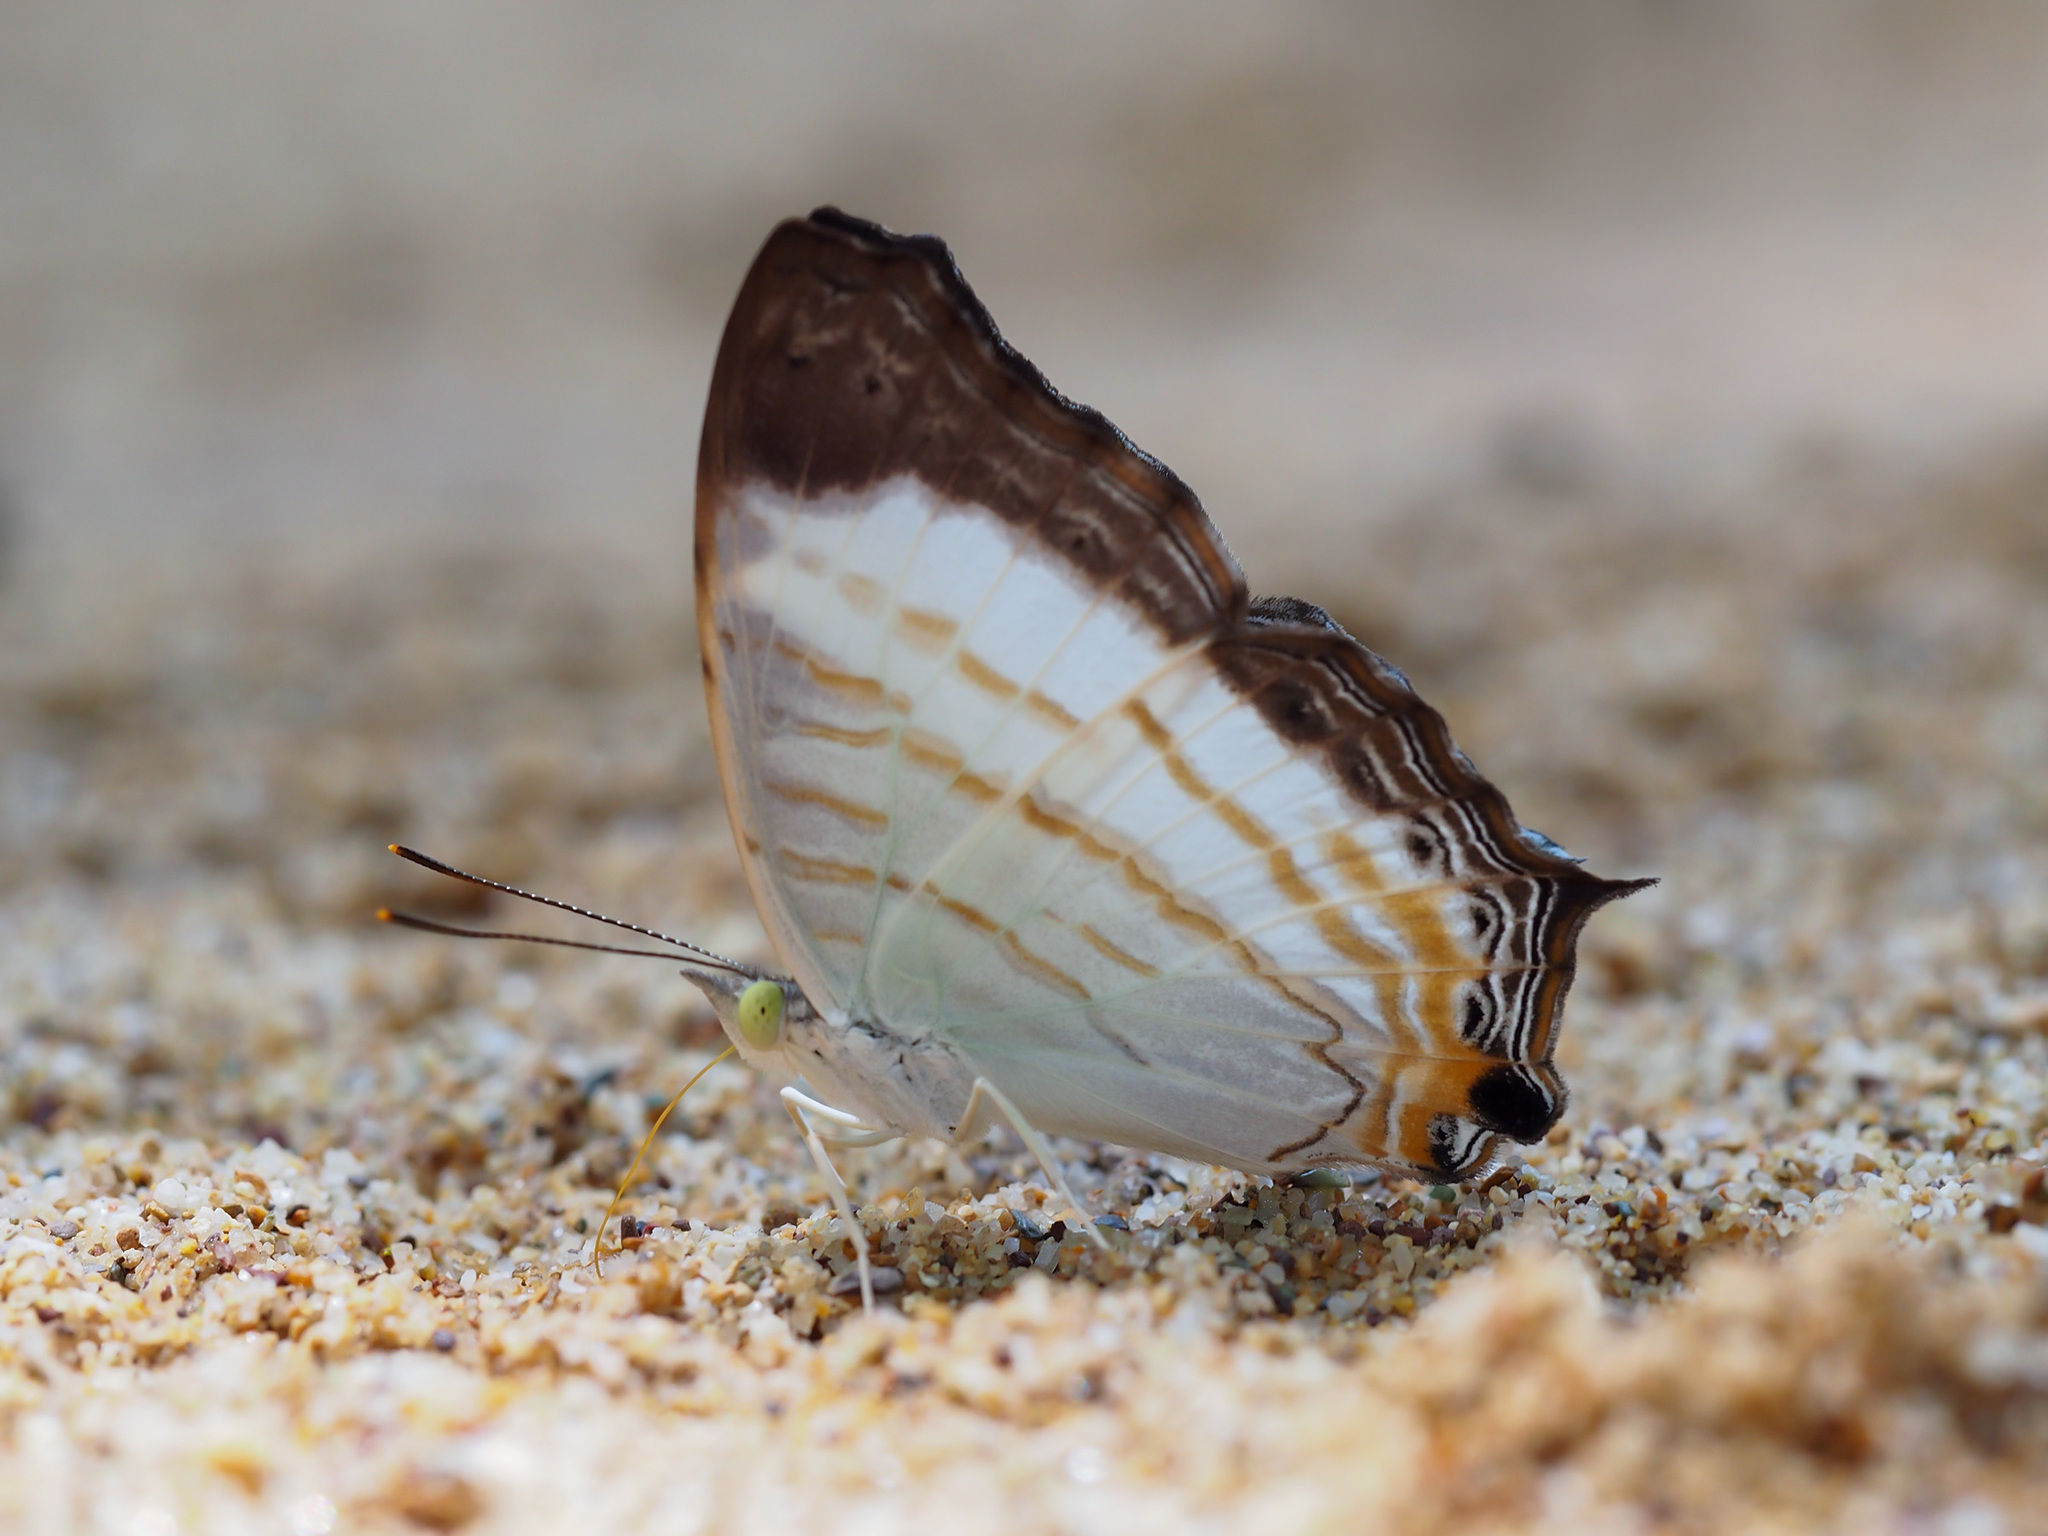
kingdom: Animalia
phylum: Arthropoda
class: Insecta
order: Lepidoptera
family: Nymphalidae
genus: Cyrestis
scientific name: Cyrestis themire
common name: Little mapwing
